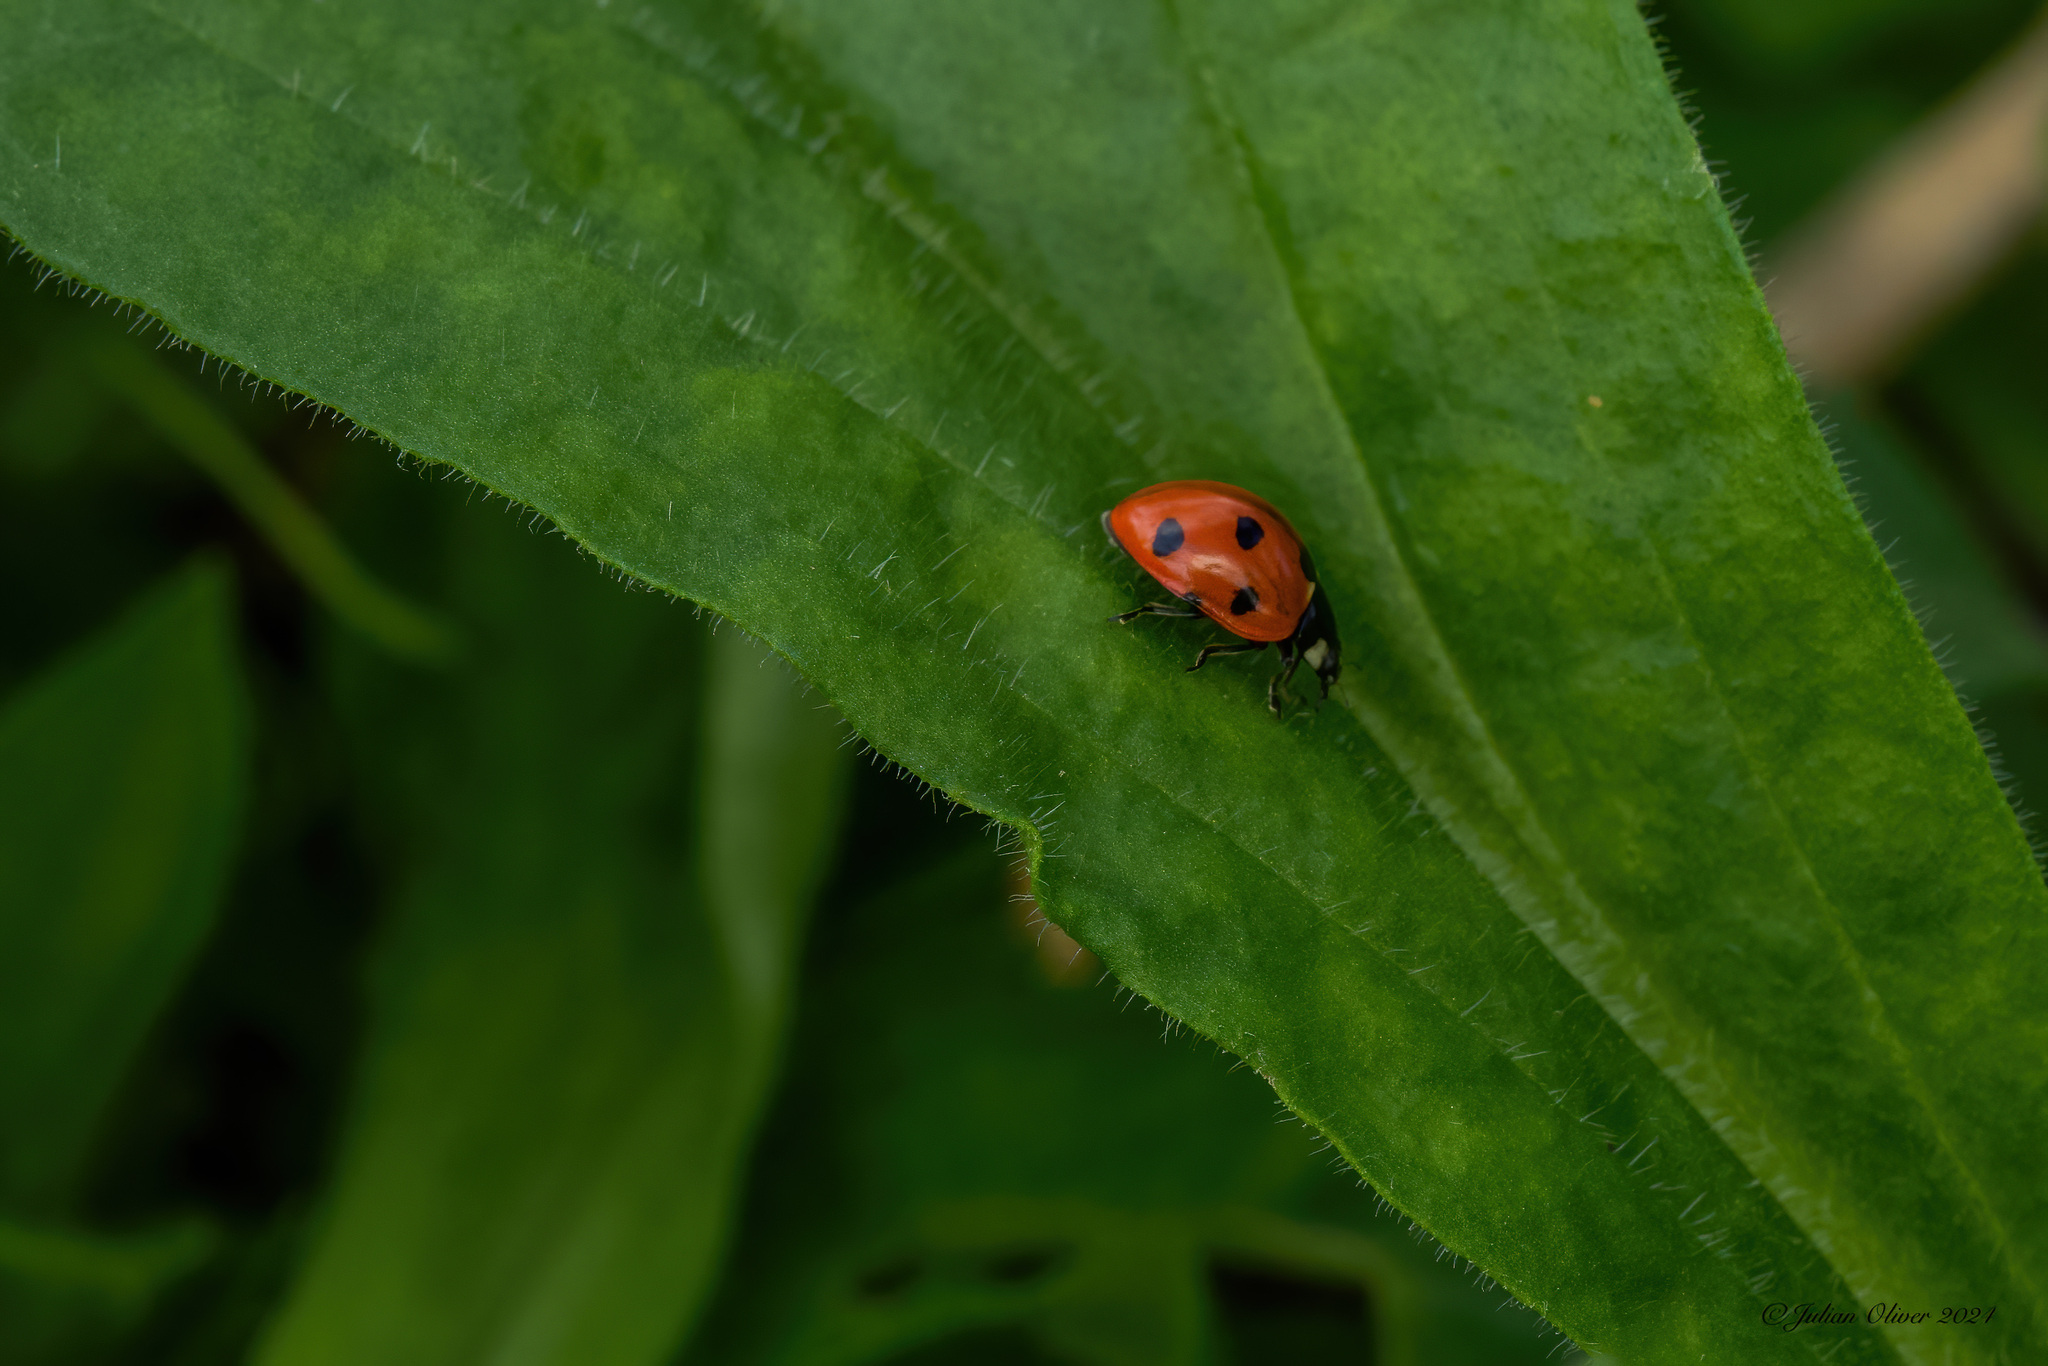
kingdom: Animalia
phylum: Arthropoda
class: Insecta
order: Coleoptera
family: Coccinellidae
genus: Coccinella
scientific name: Coccinella septempunctata
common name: Sevenspotted lady beetle
